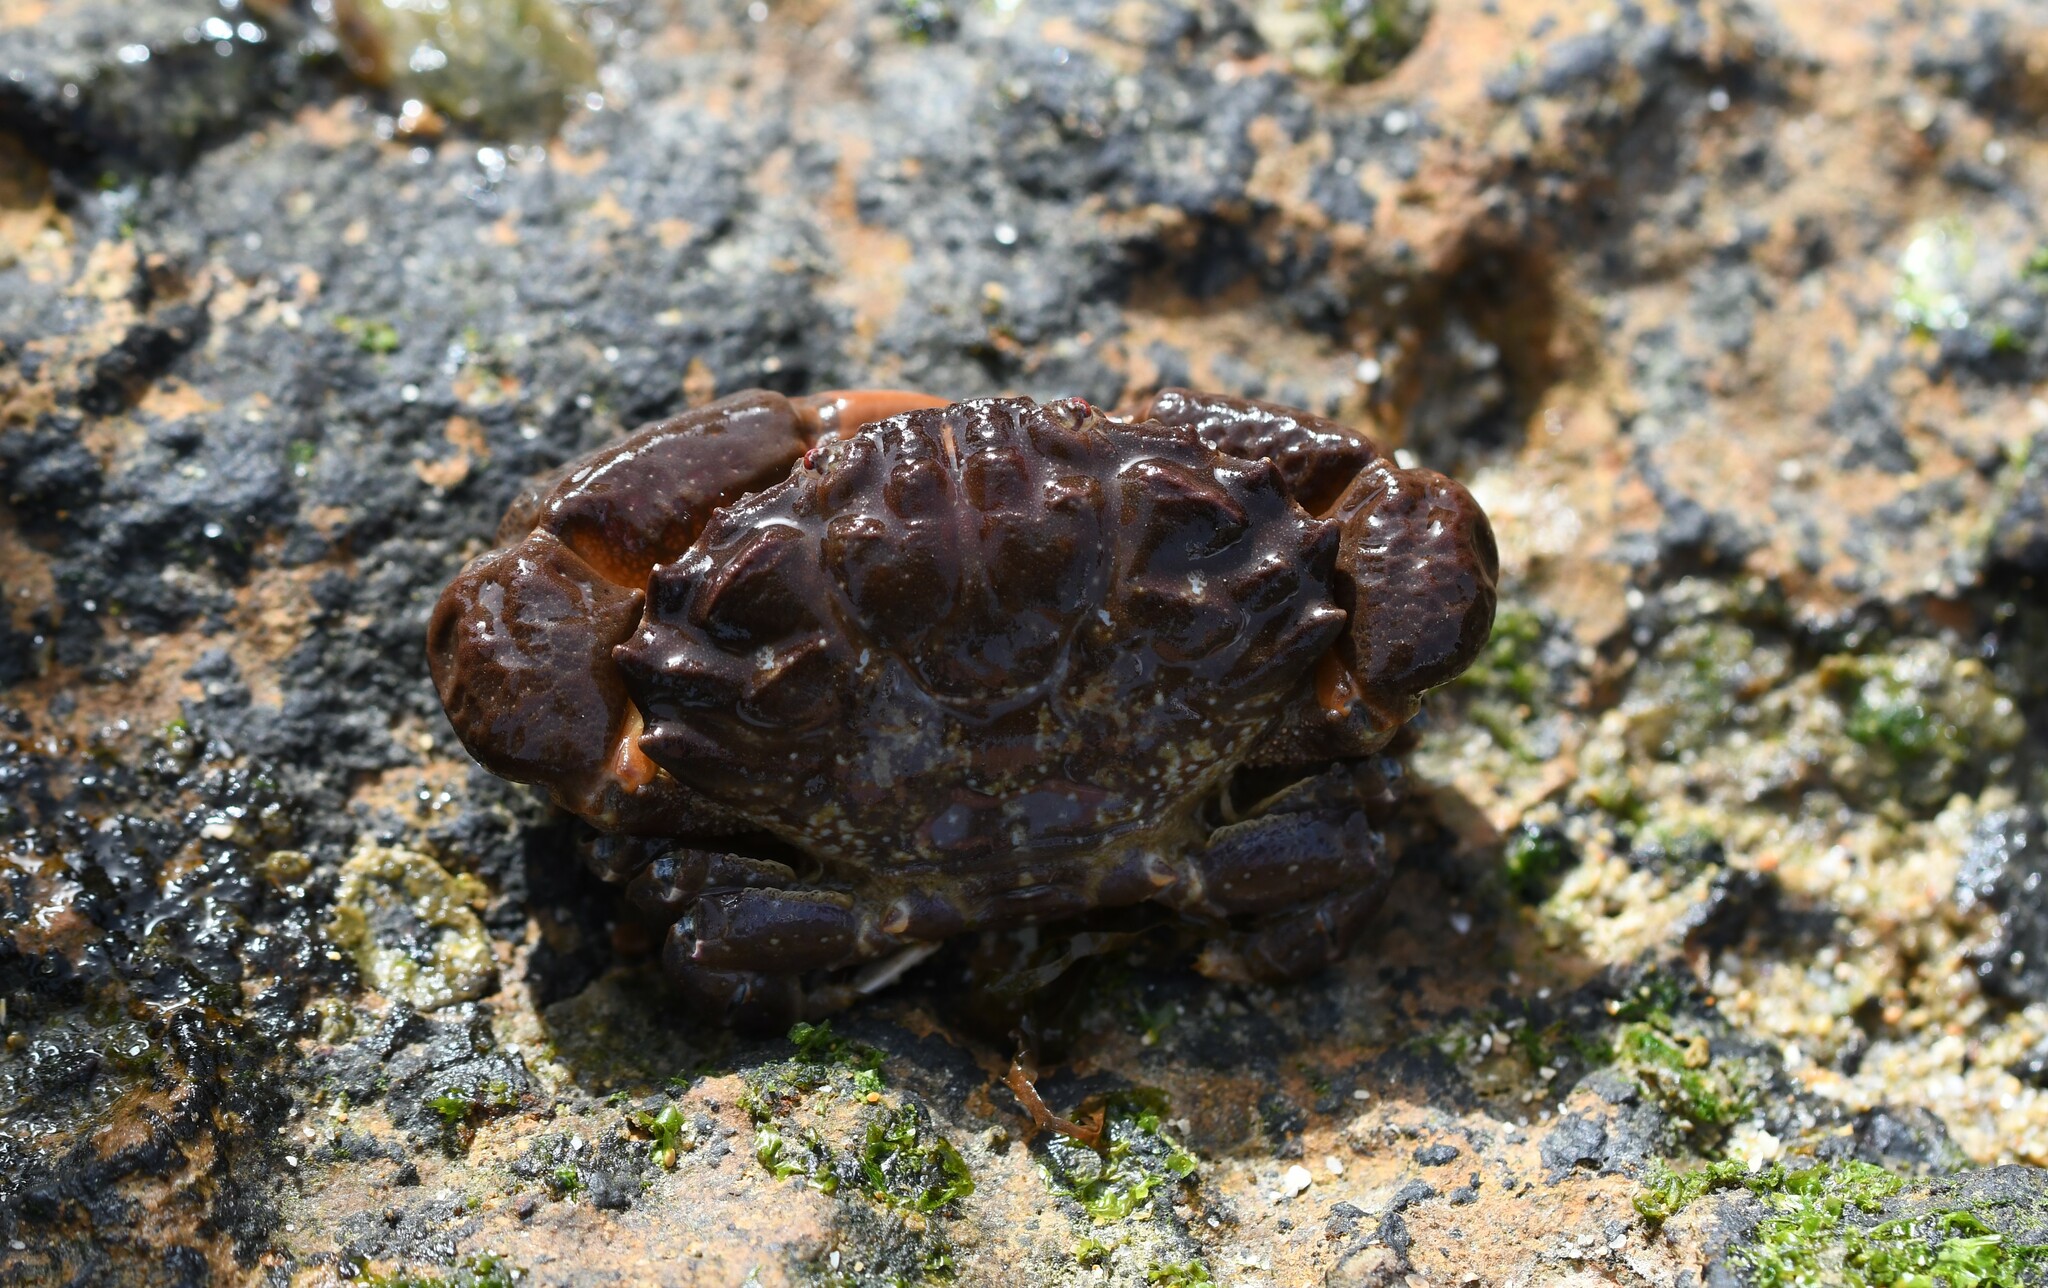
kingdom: Animalia
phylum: Arthropoda
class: Malacostraca
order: Decapoda
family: Xanthidae
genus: Xantho
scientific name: Xantho hydrophilus
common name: Montagu's crab
